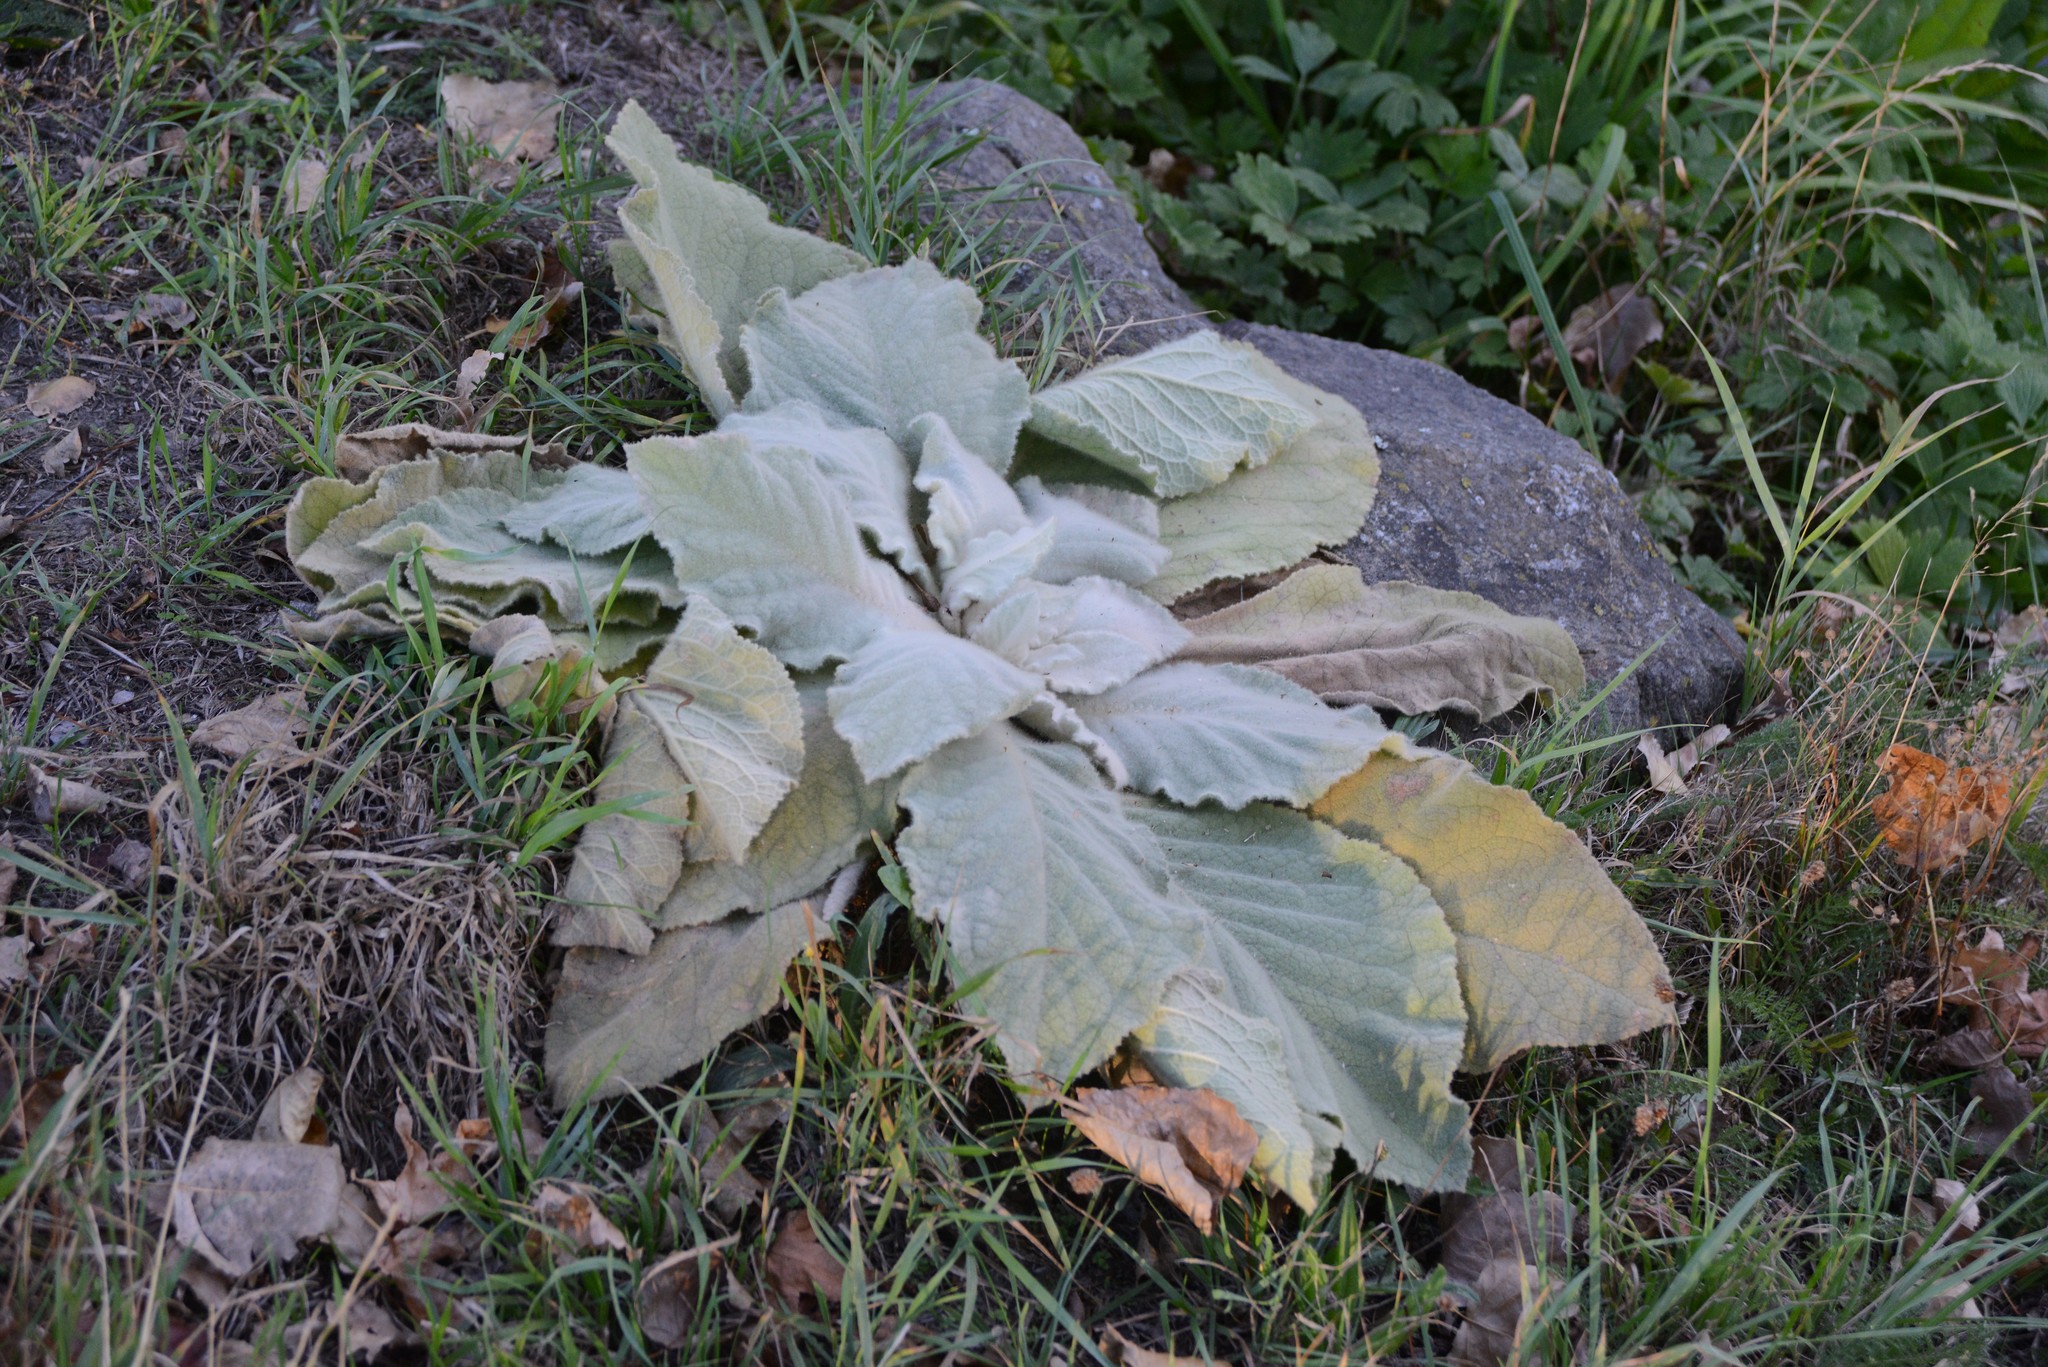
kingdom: Plantae
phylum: Tracheophyta
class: Magnoliopsida
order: Lamiales
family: Scrophulariaceae
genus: Verbascum
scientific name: Verbascum thapsus
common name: Common mullein
